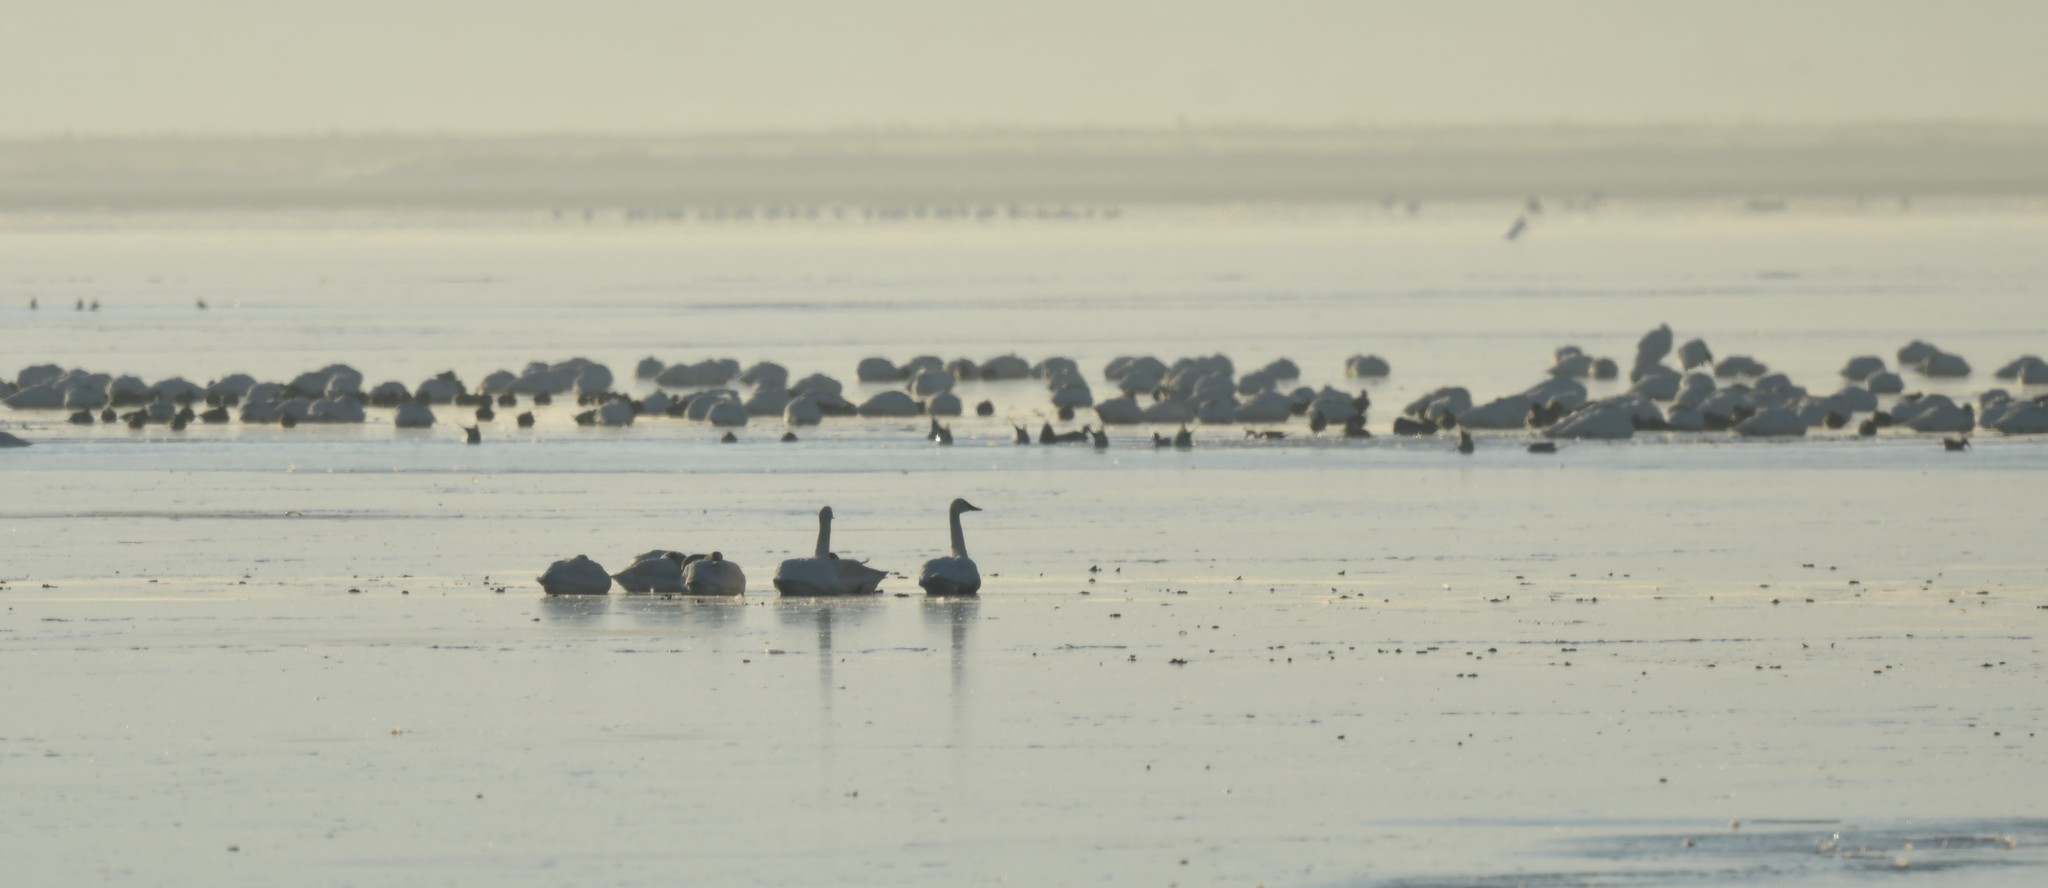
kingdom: Animalia
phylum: Chordata
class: Aves
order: Anseriformes
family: Anatidae
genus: Cygnus
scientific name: Cygnus columbianus
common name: Tundra swan
